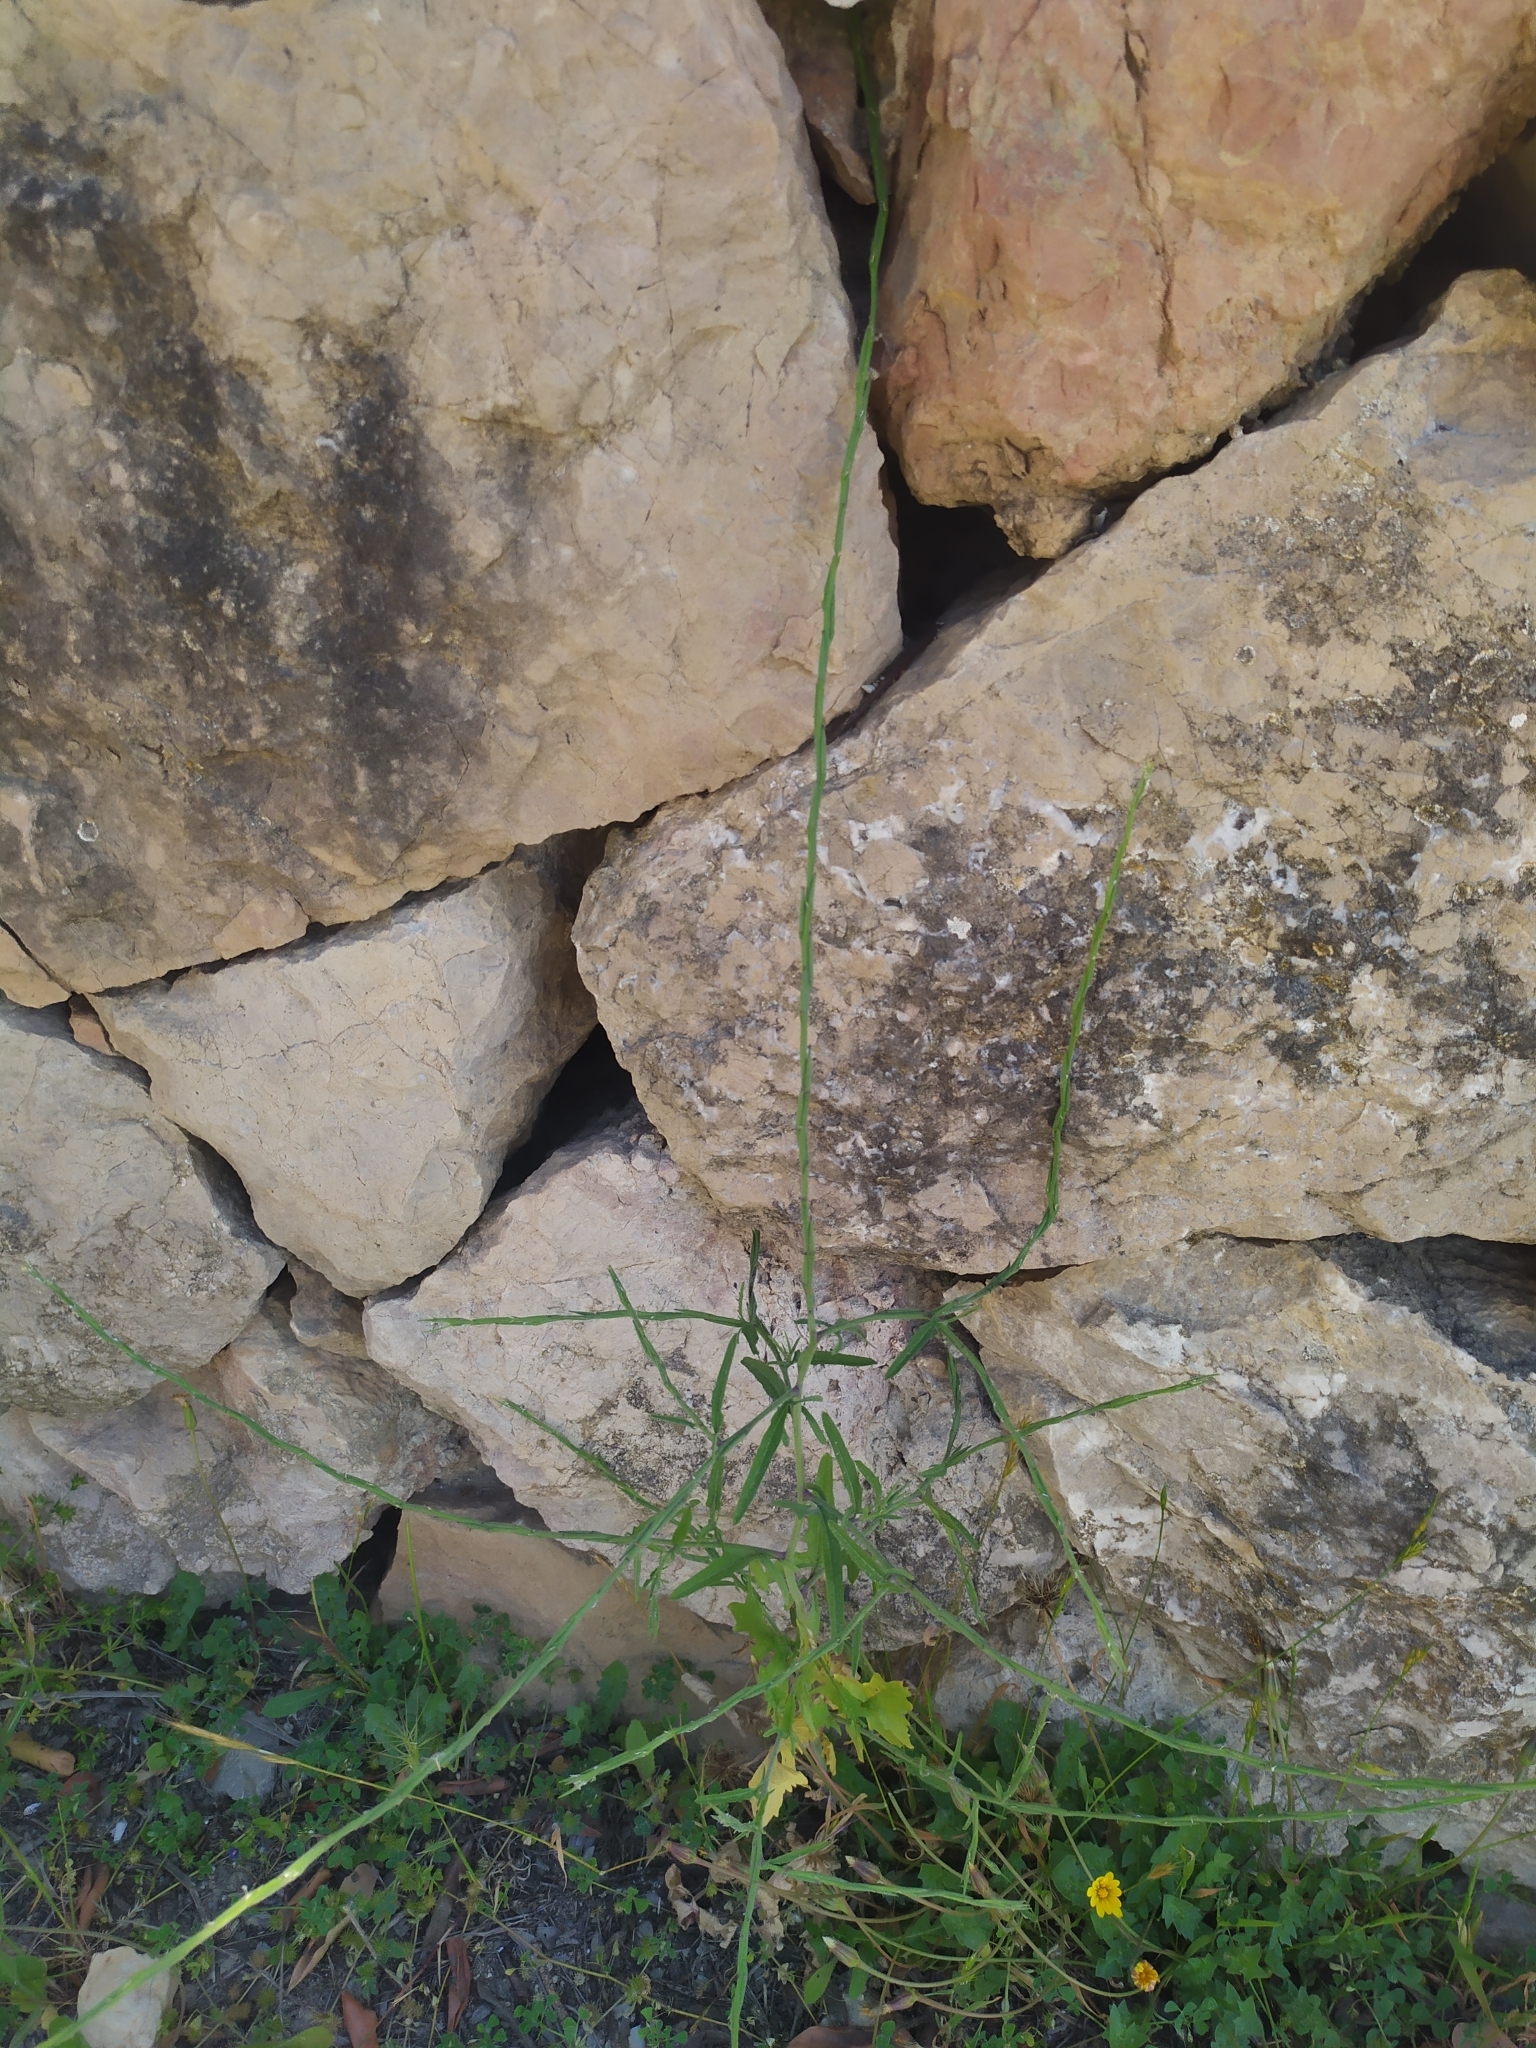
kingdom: Plantae
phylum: Tracheophyta
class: Magnoliopsida
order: Brassicales
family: Brassicaceae
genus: Sisymbrium
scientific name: Sisymbrium officinale
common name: Hedge mustard
